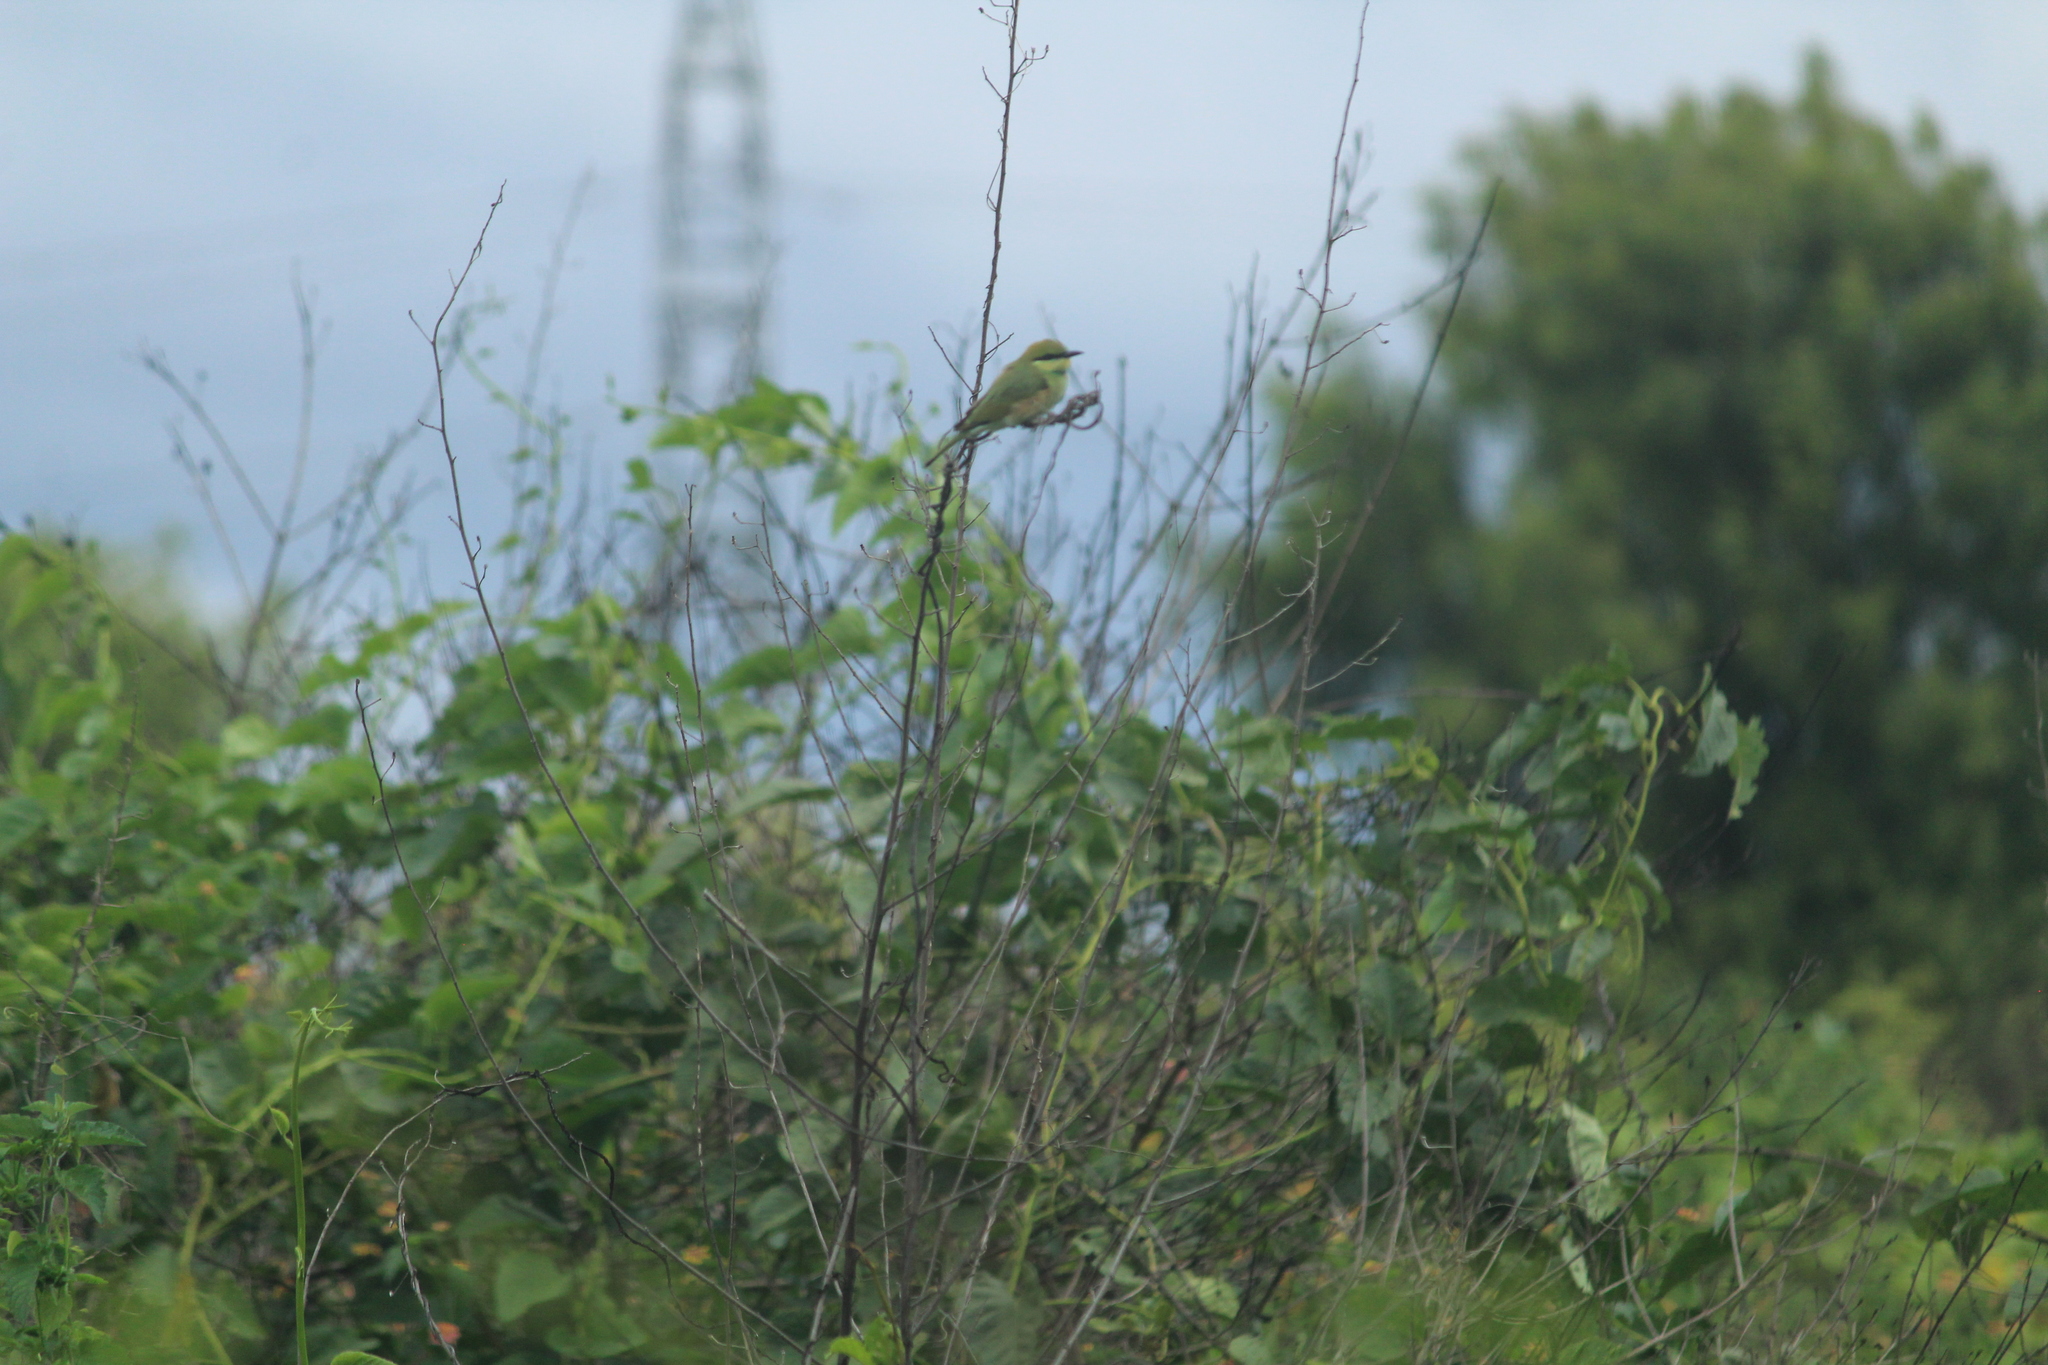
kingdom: Animalia
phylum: Chordata
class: Aves
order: Coraciiformes
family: Meropidae
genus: Merops
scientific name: Merops orientalis
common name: Green bee-eater
